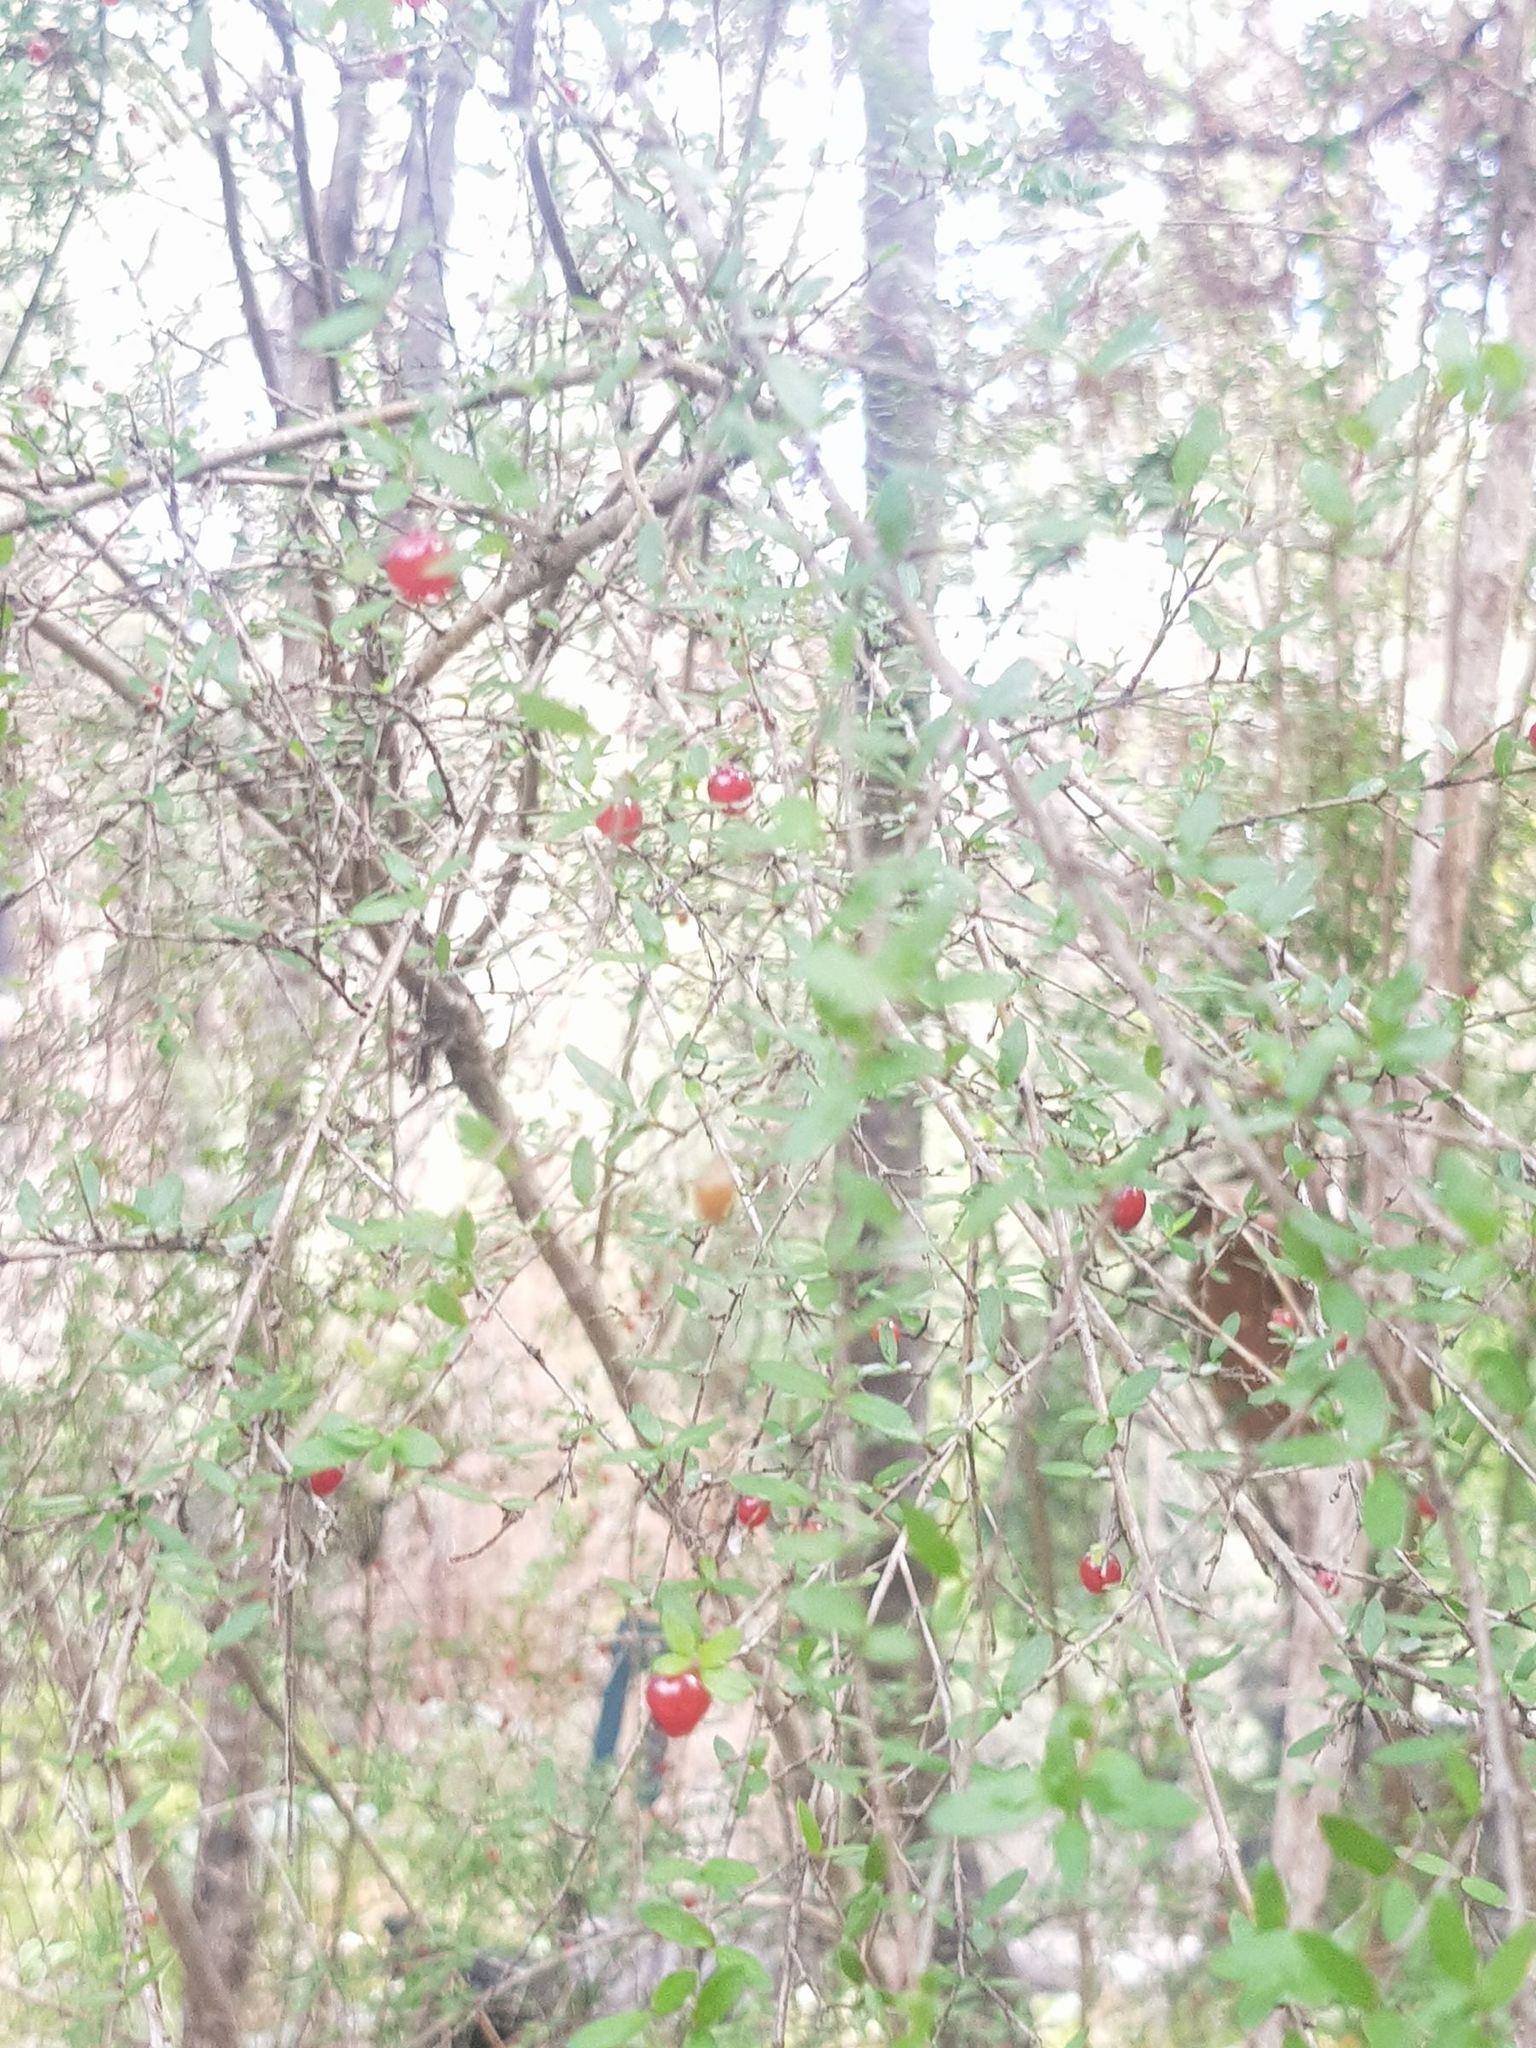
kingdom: Plantae
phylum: Tracheophyta
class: Magnoliopsida
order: Gentianales
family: Rubiaceae
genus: Coprosma
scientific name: Coprosma quadrifida
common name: Prickly currantbush
